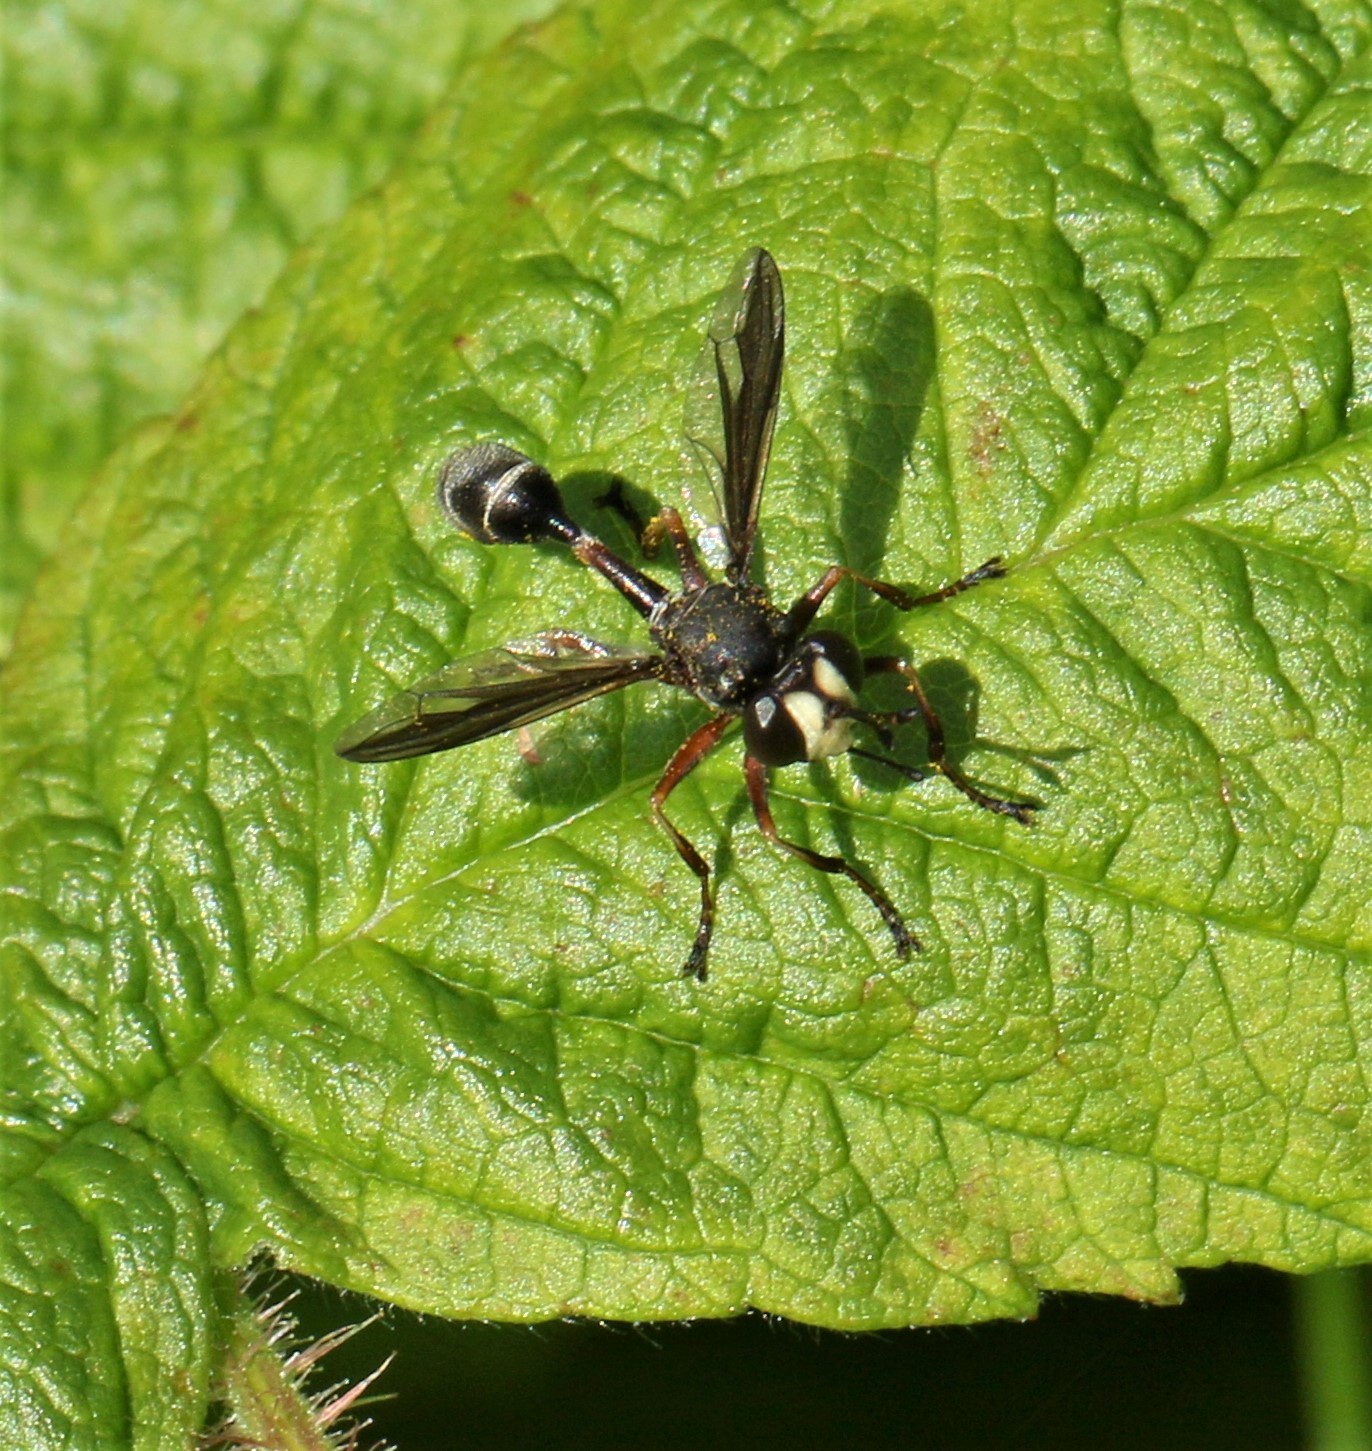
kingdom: Animalia
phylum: Arthropoda
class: Insecta
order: Diptera
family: Conopidae
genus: Physocephala
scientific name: Physocephala furcillata
